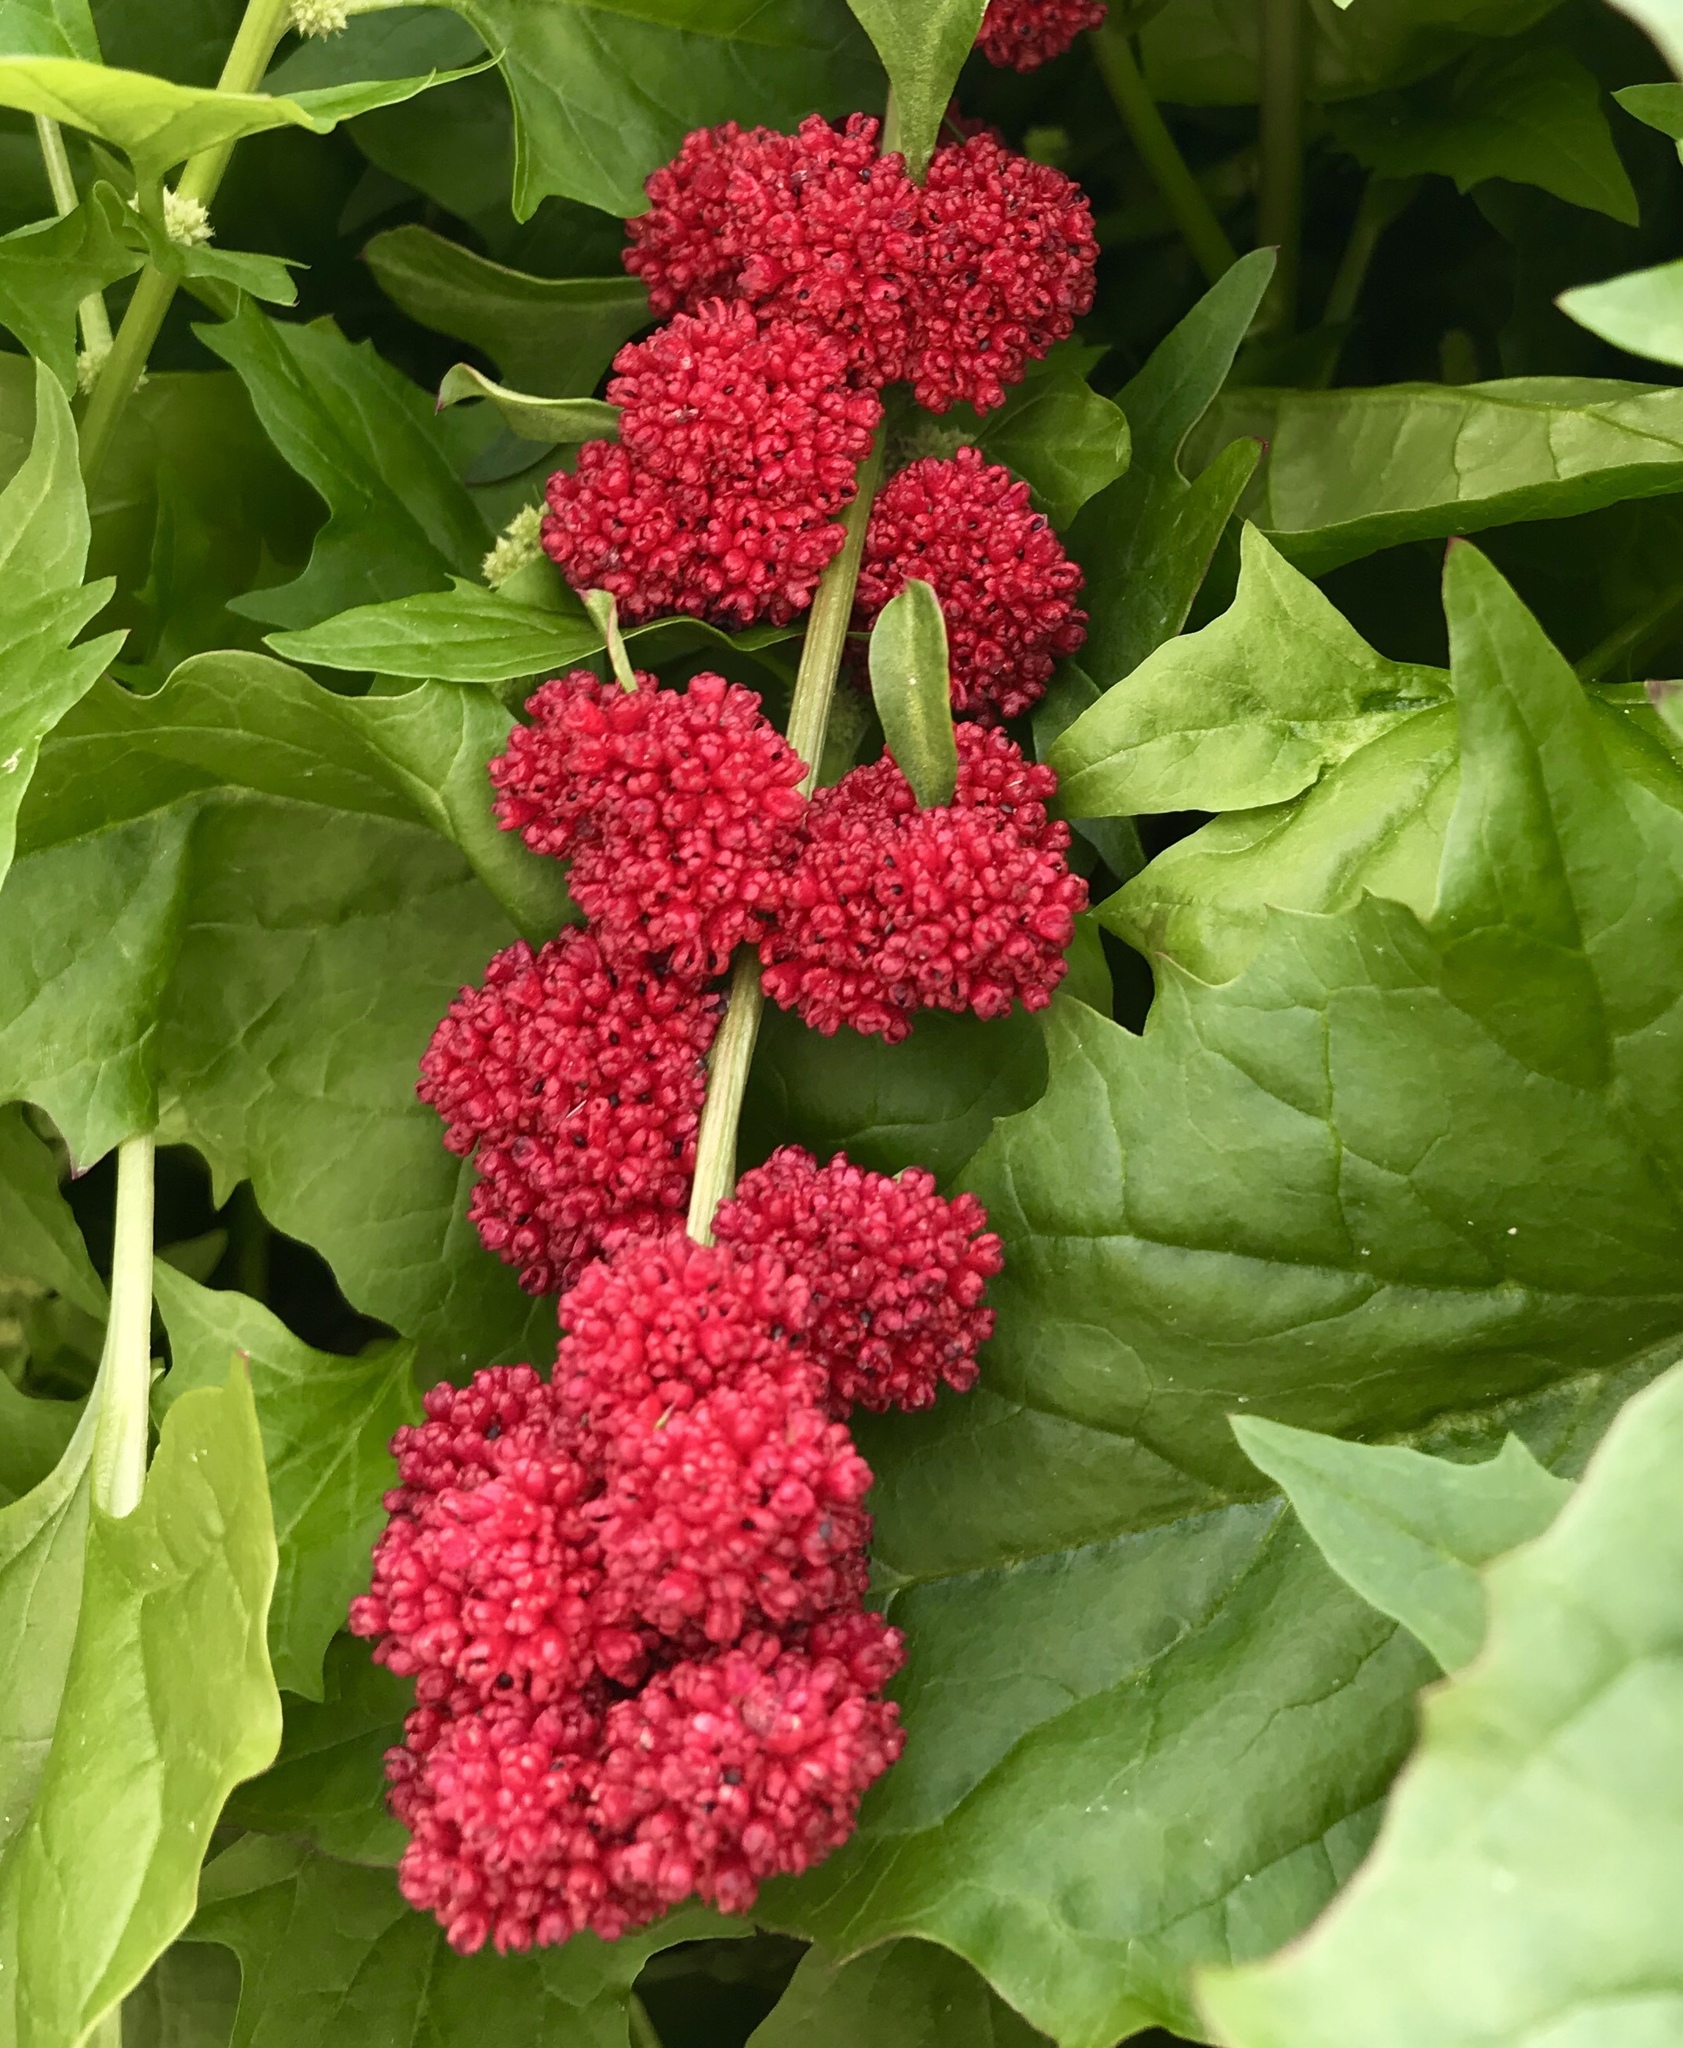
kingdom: Plantae
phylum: Tracheophyta
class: Magnoliopsida
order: Caryophyllales
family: Amaranthaceae
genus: Blitum
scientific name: Blitum capitatum
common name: Strawberry-blight
